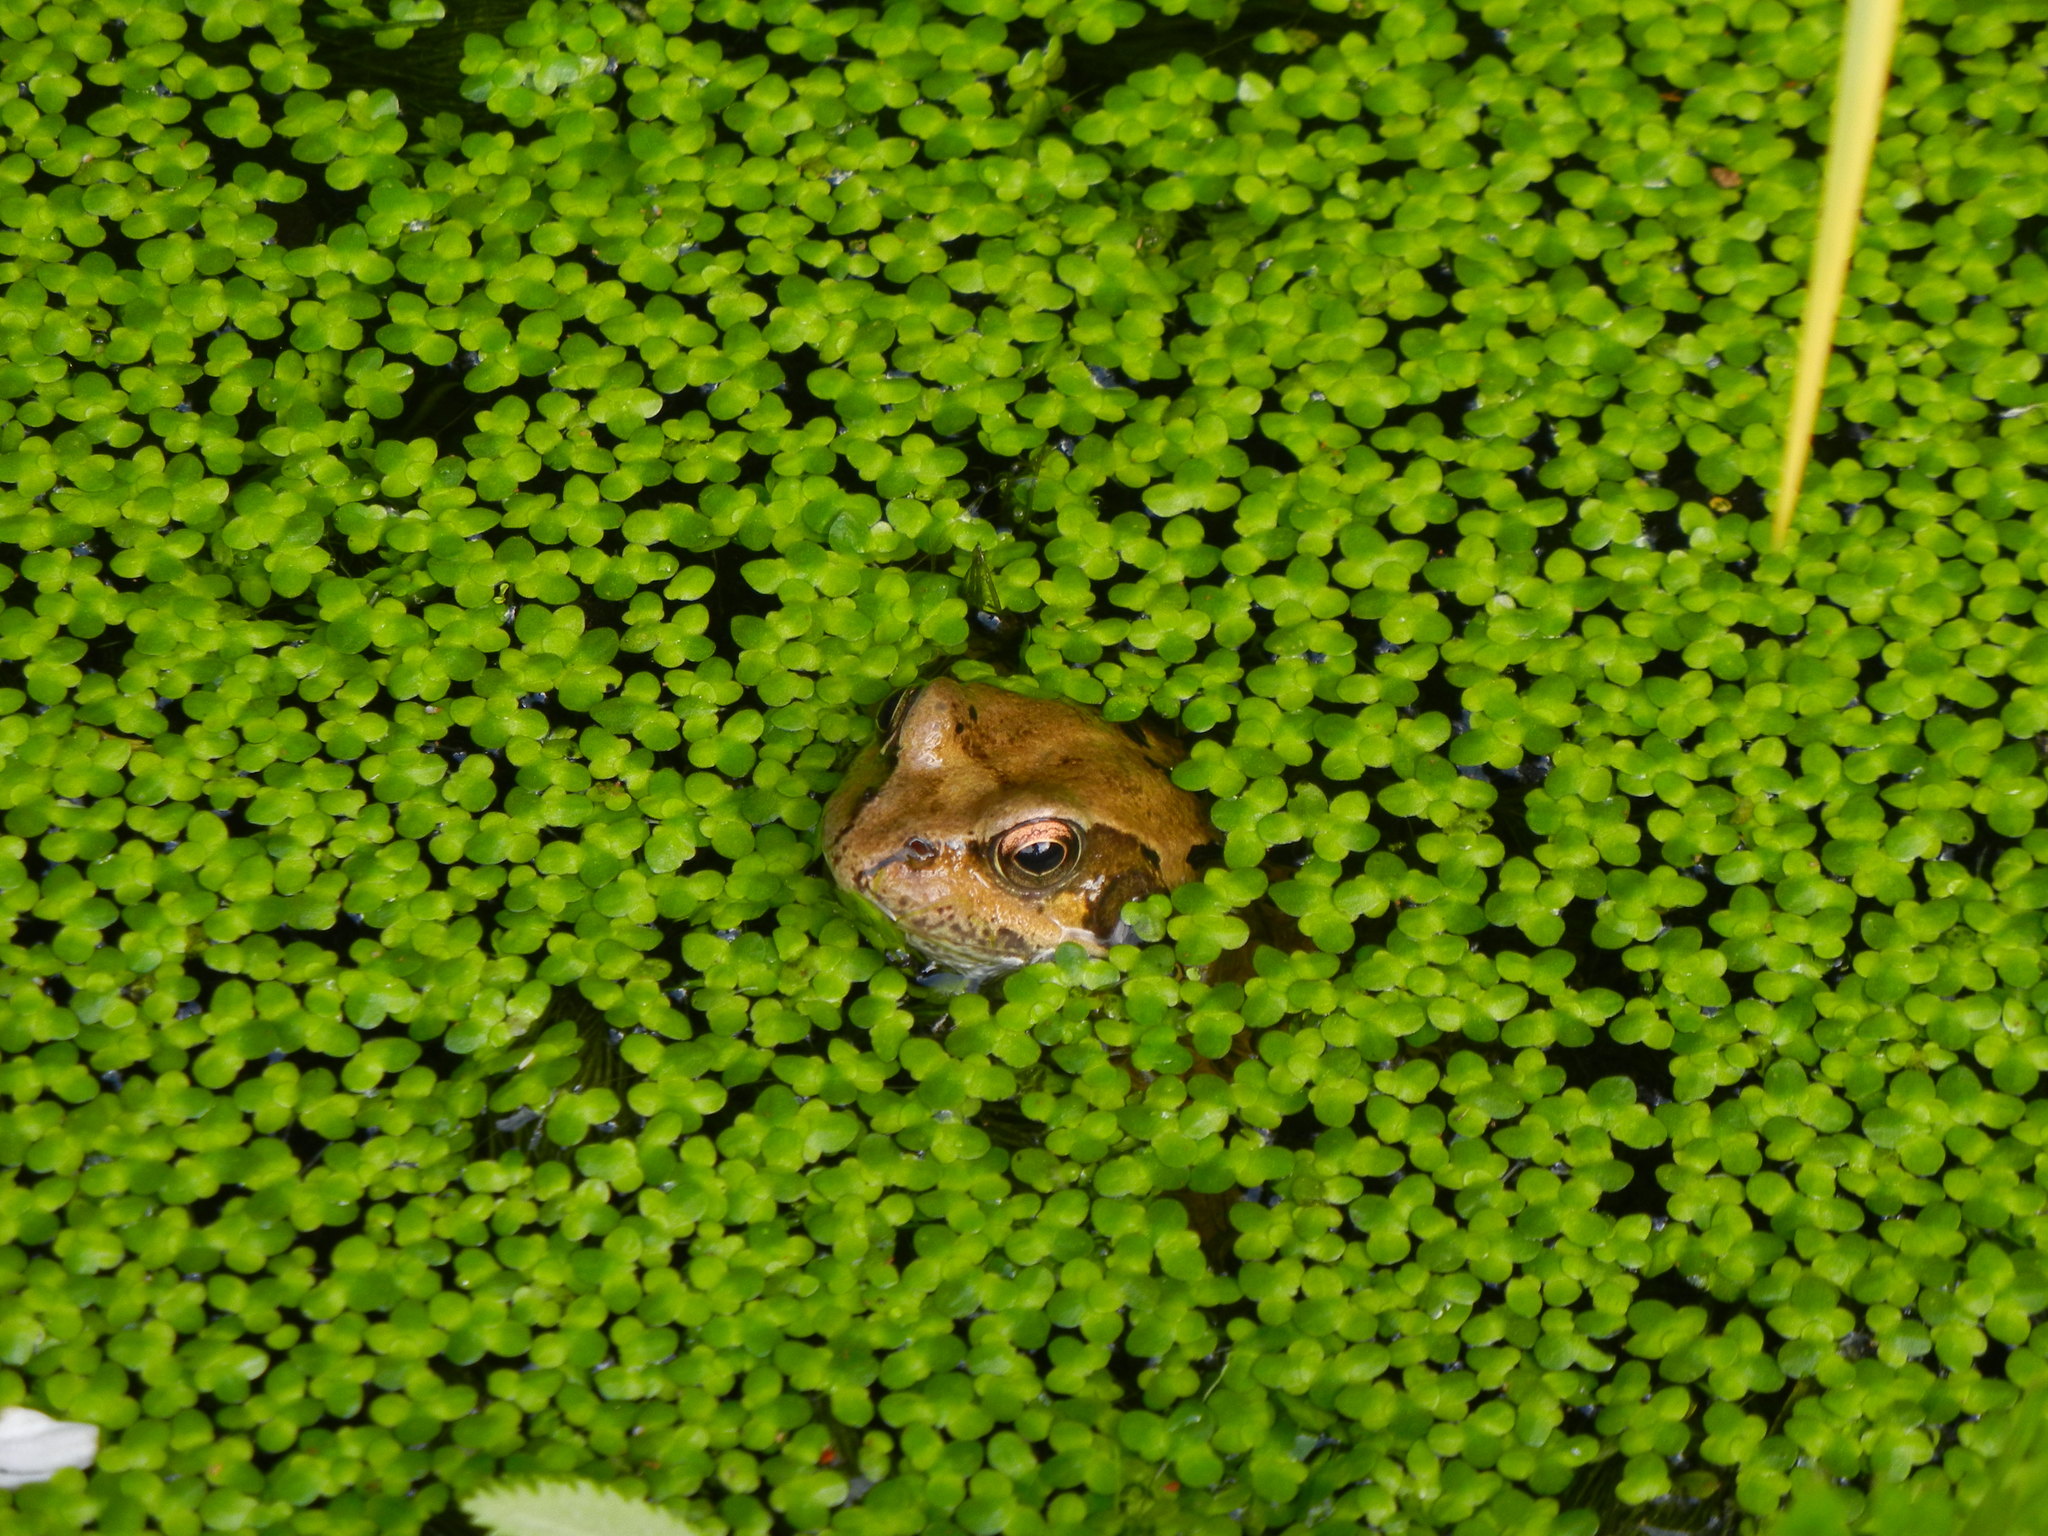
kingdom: Plantae
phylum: Tracheophyta
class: Liliopsida
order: Alismatales
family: Araceae
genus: Lemna
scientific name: Lemna minor
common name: Common duckweed
